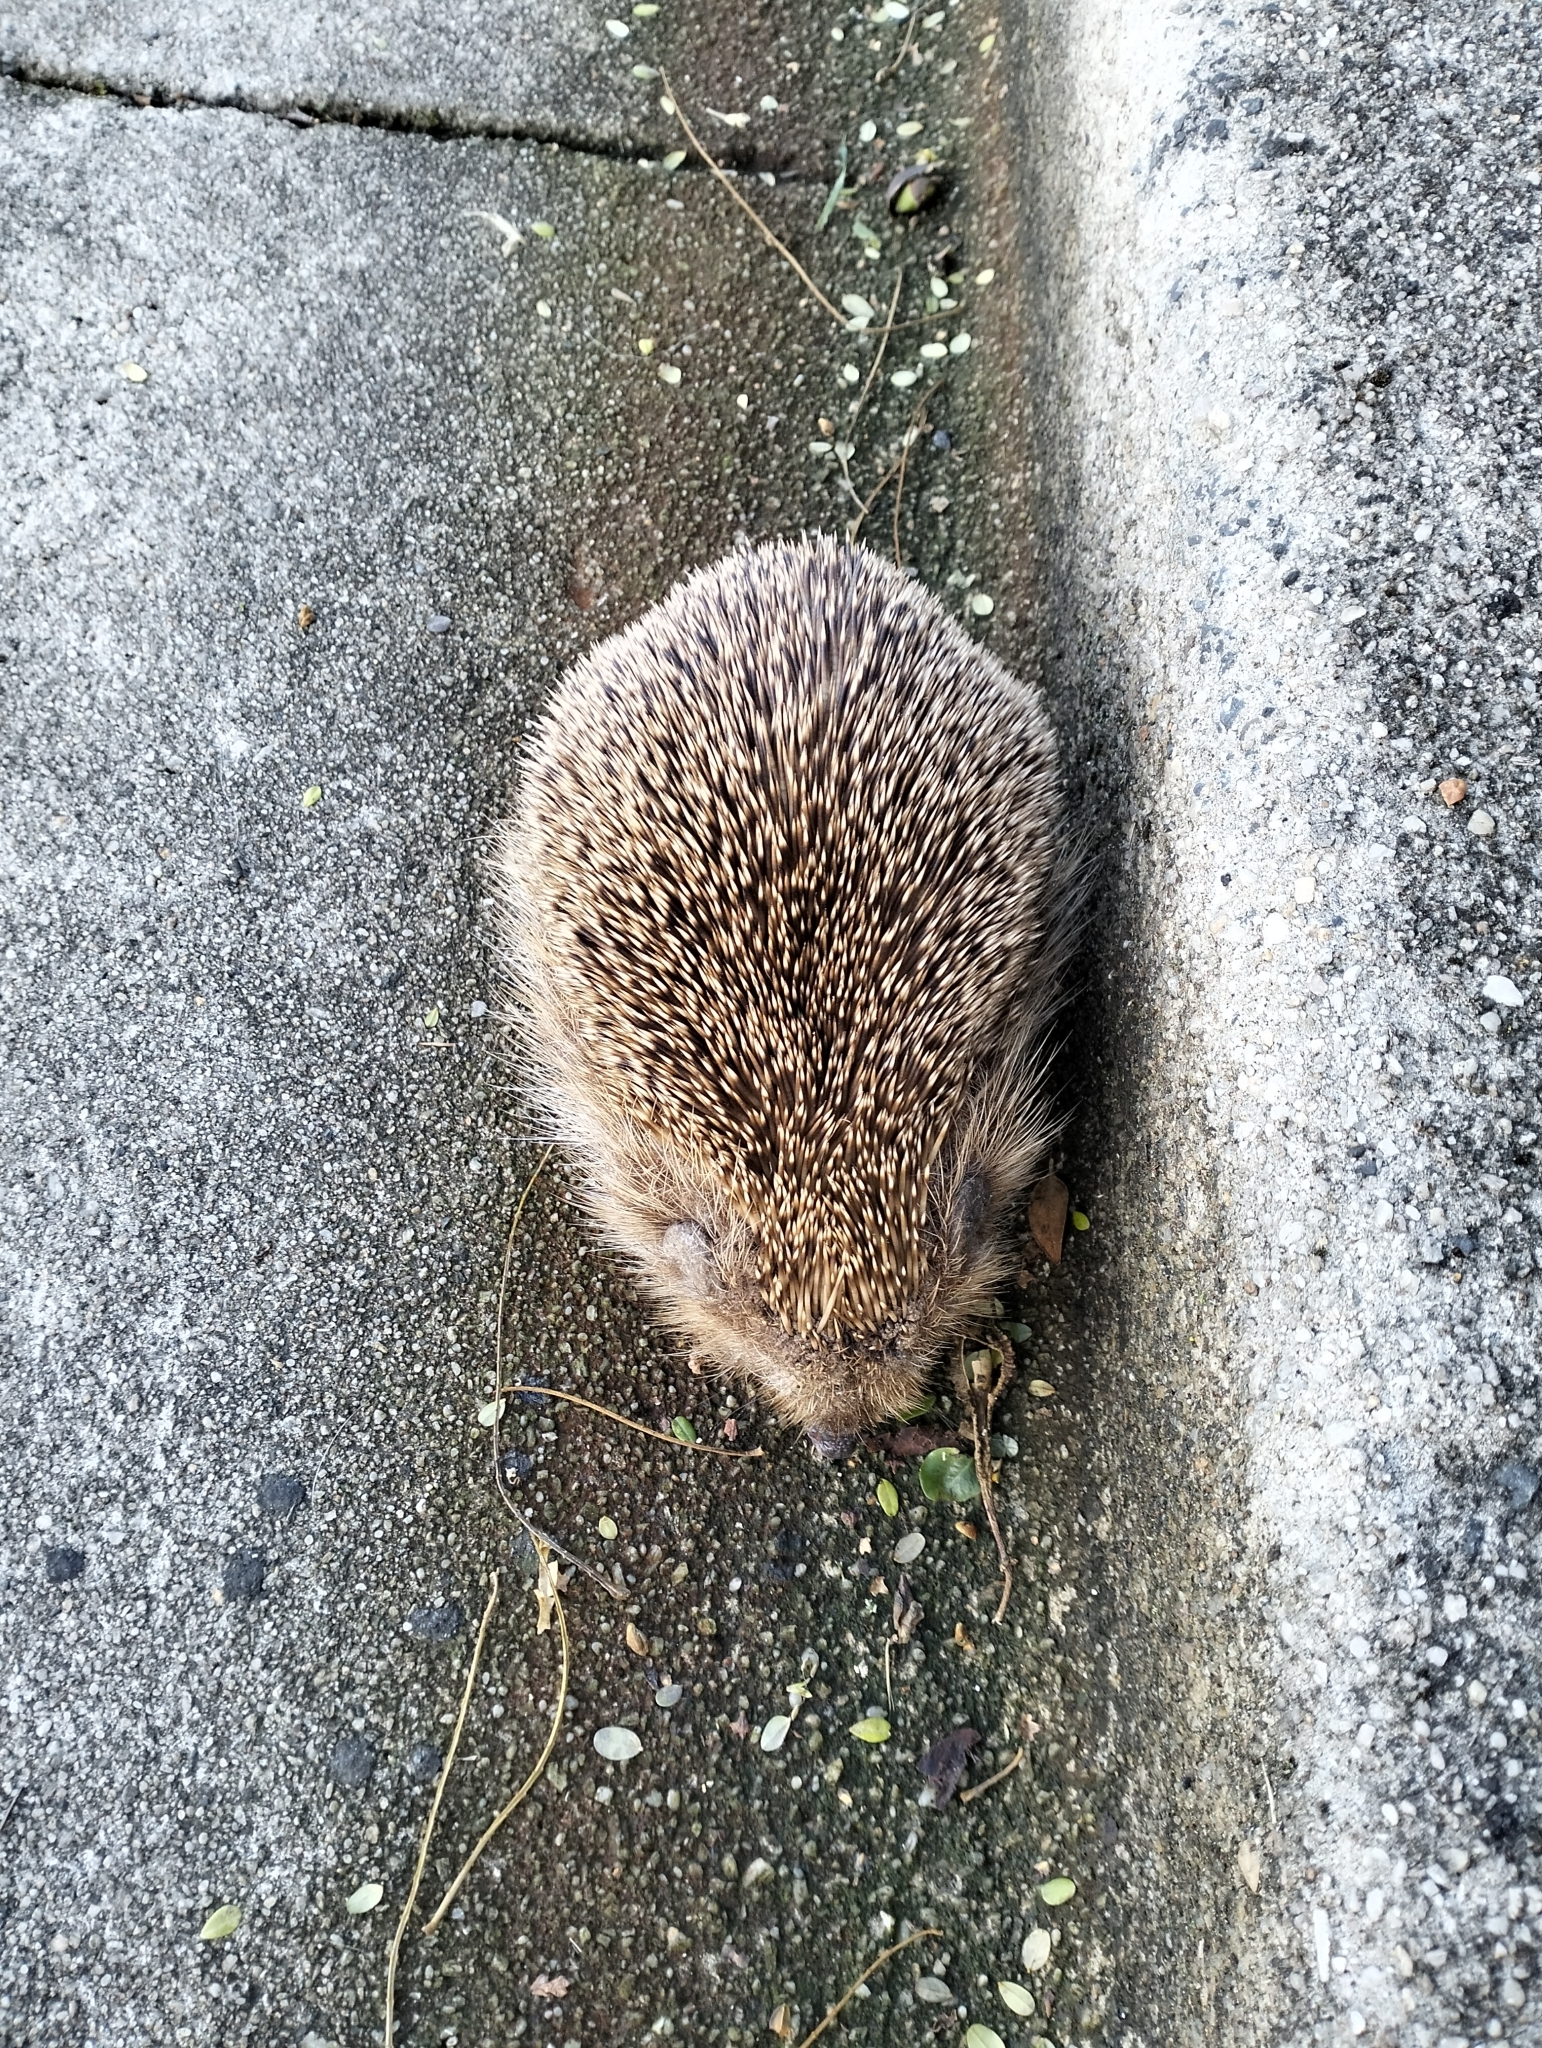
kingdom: Animalia
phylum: Chordata
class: Mammalia
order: Erinaceomorpha
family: Erinaceidae
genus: Erinaceus
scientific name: Erinaceus europaeus
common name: West european hedgehog
